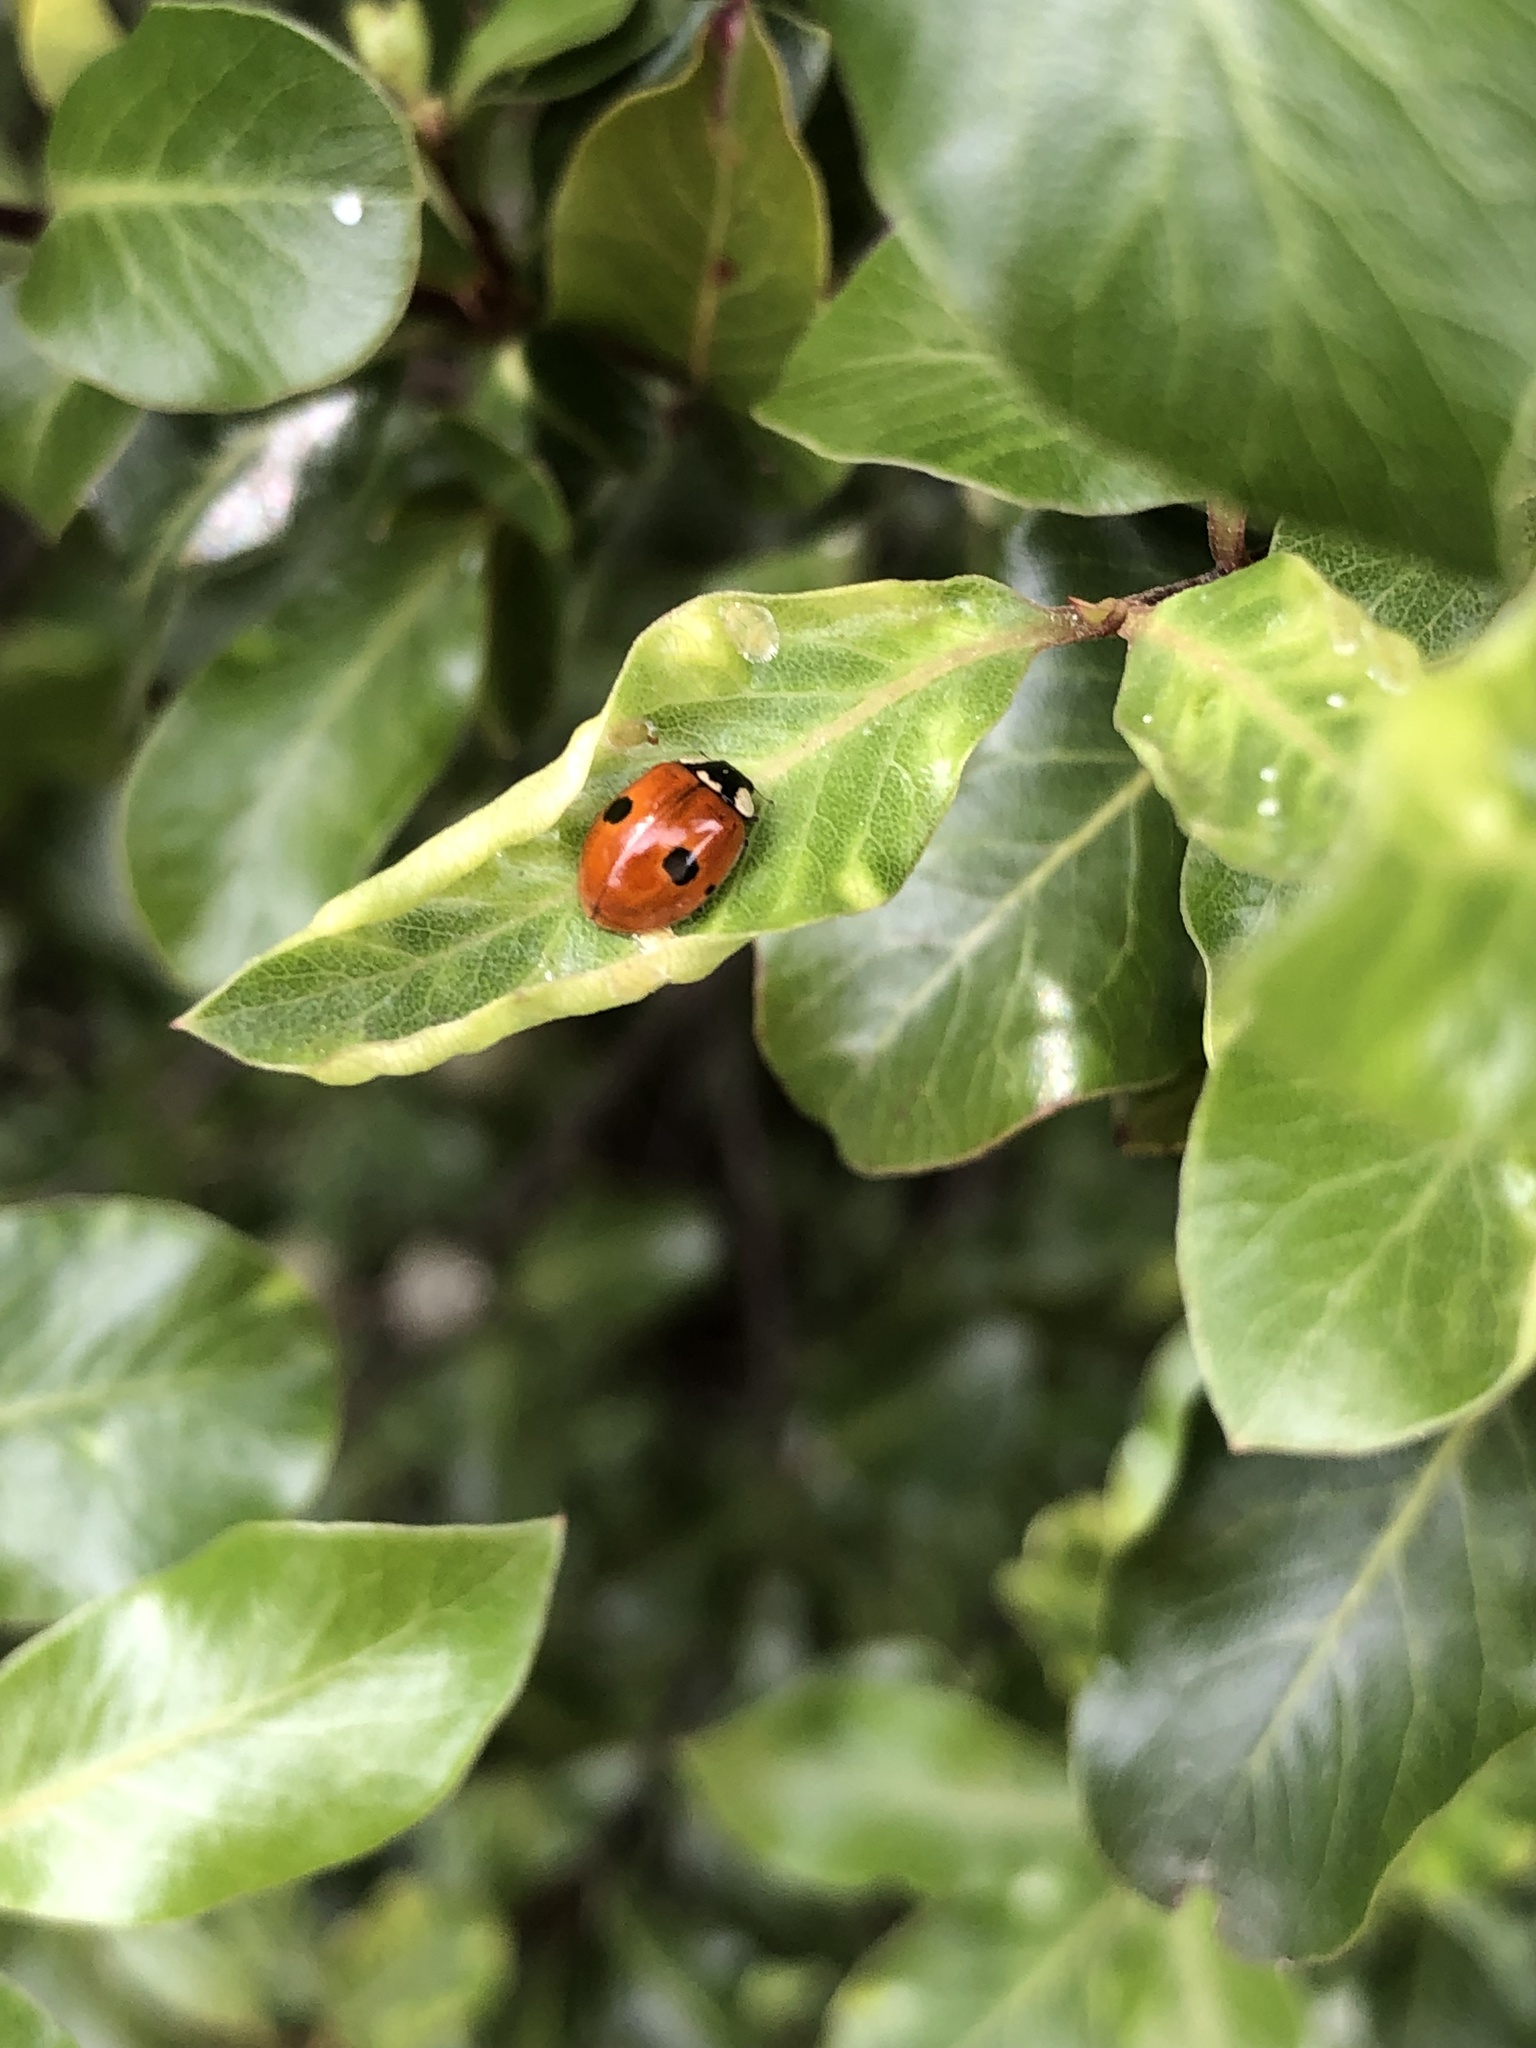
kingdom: Animalia
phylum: Arthropoda
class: Insecta
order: Coleoptera
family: Coccinellidae
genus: Adalia
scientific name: Adalia bipunctata
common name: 2-spot ladybird
